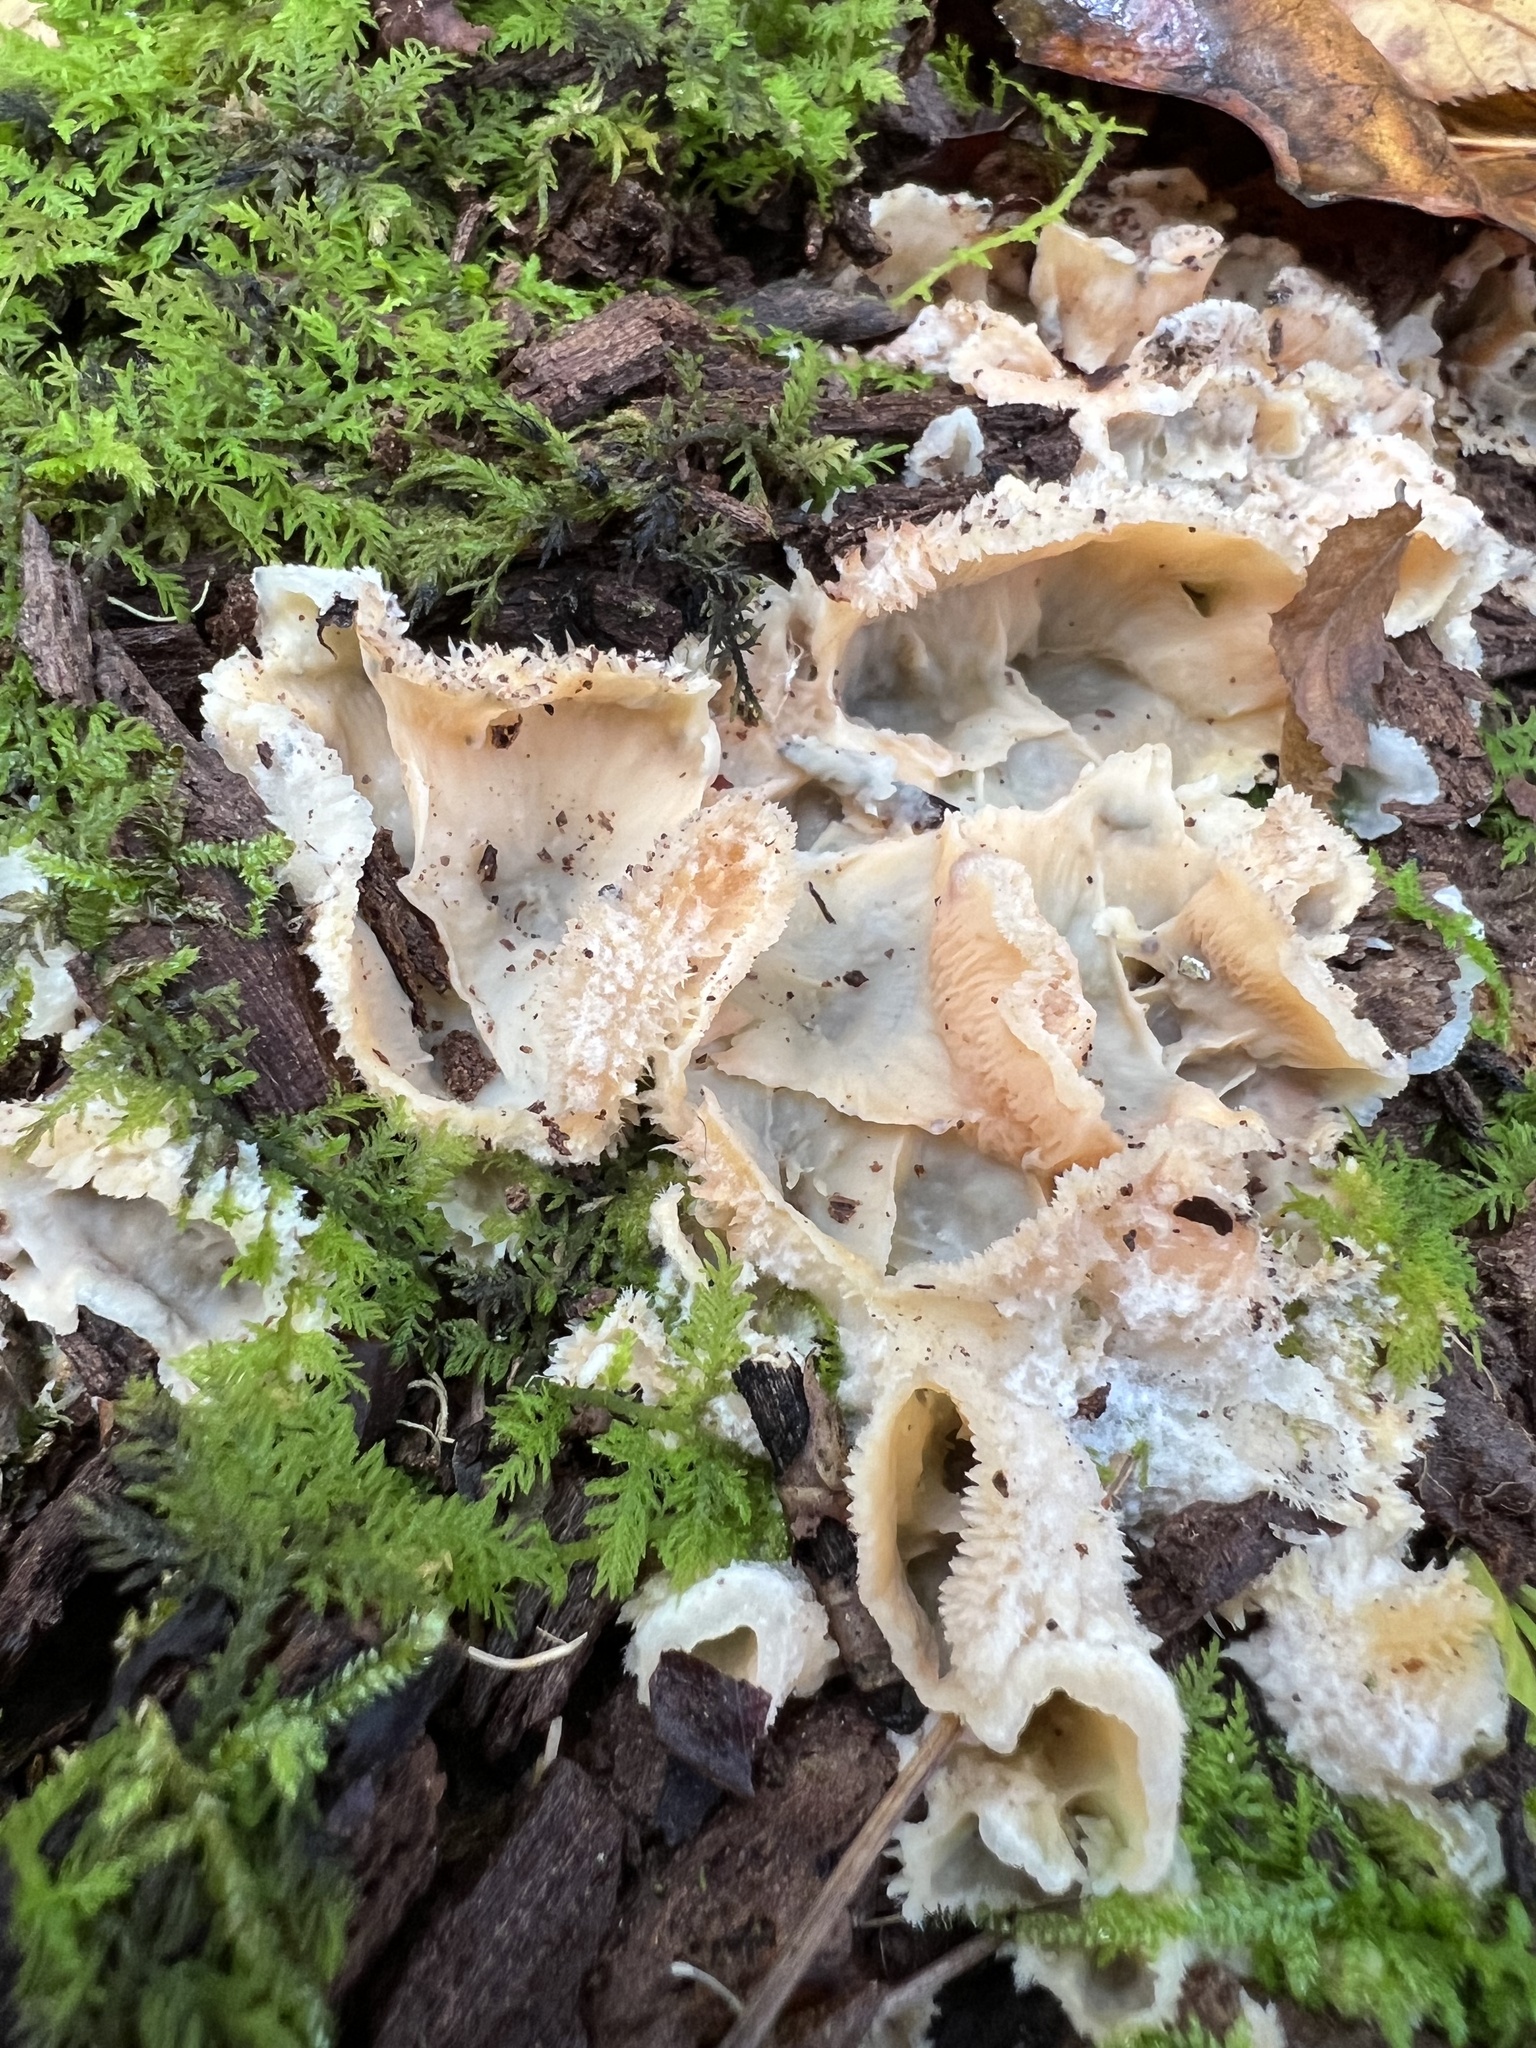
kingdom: Fungi
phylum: Basidiomycota
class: Agaricomycetes
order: Polyporales
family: Meruliaceae
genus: Phlebia
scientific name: Phlebia tremellosa
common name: Jelly rot
